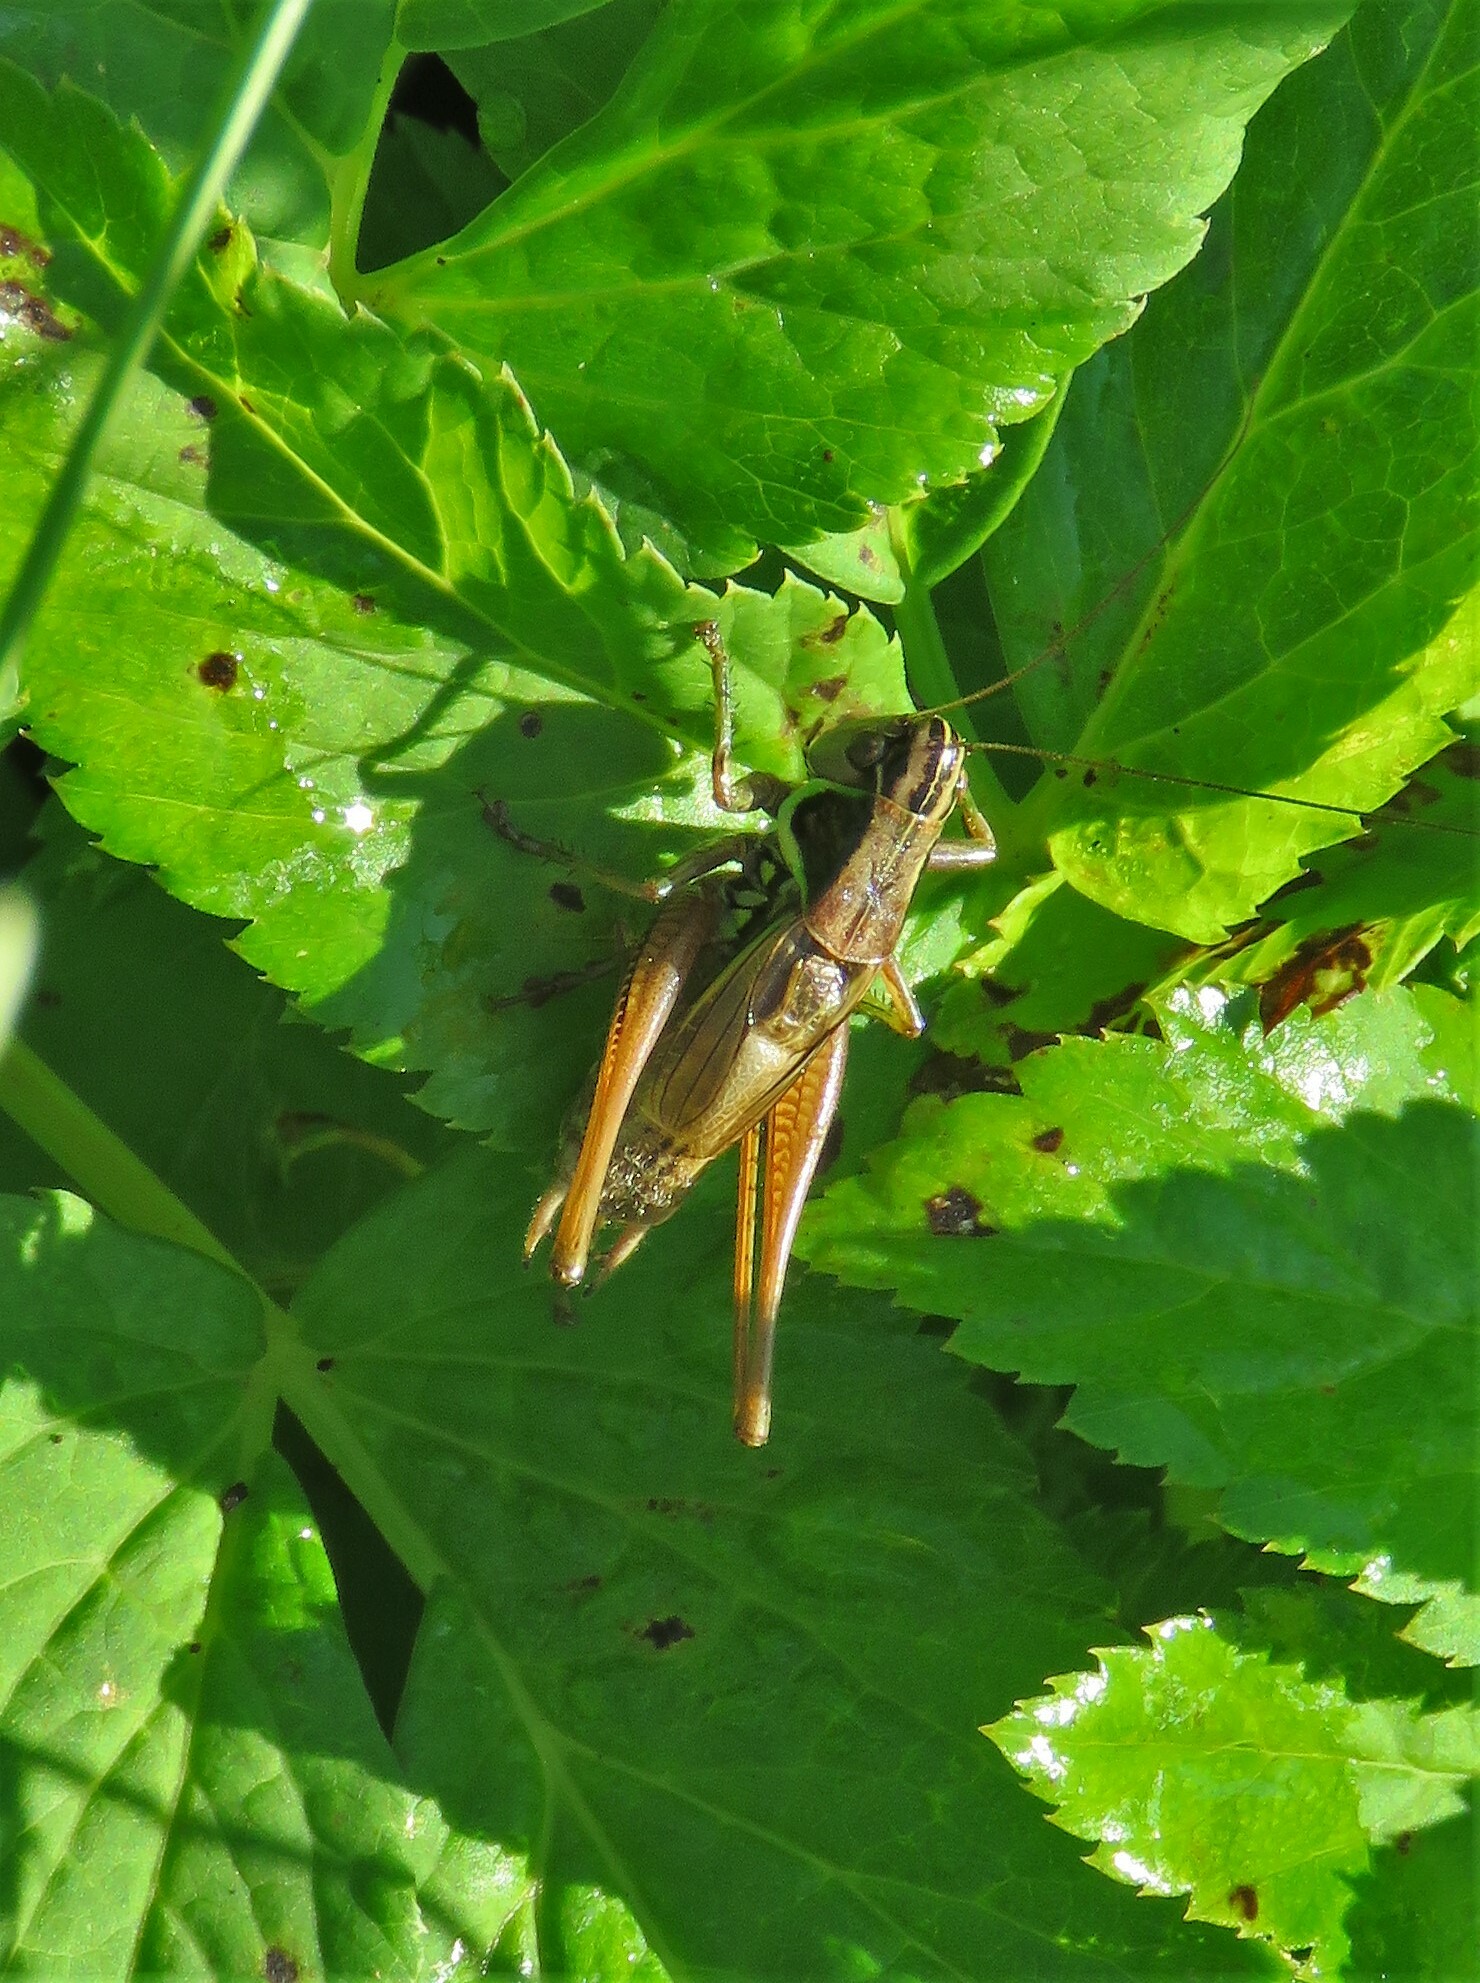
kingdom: Animalia
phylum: Arthropoda
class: Insecta
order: Orthoptera
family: Tettigoniidae
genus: Roeseliana
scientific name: Roeseliana roeselii
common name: Roesel's bush cricket
